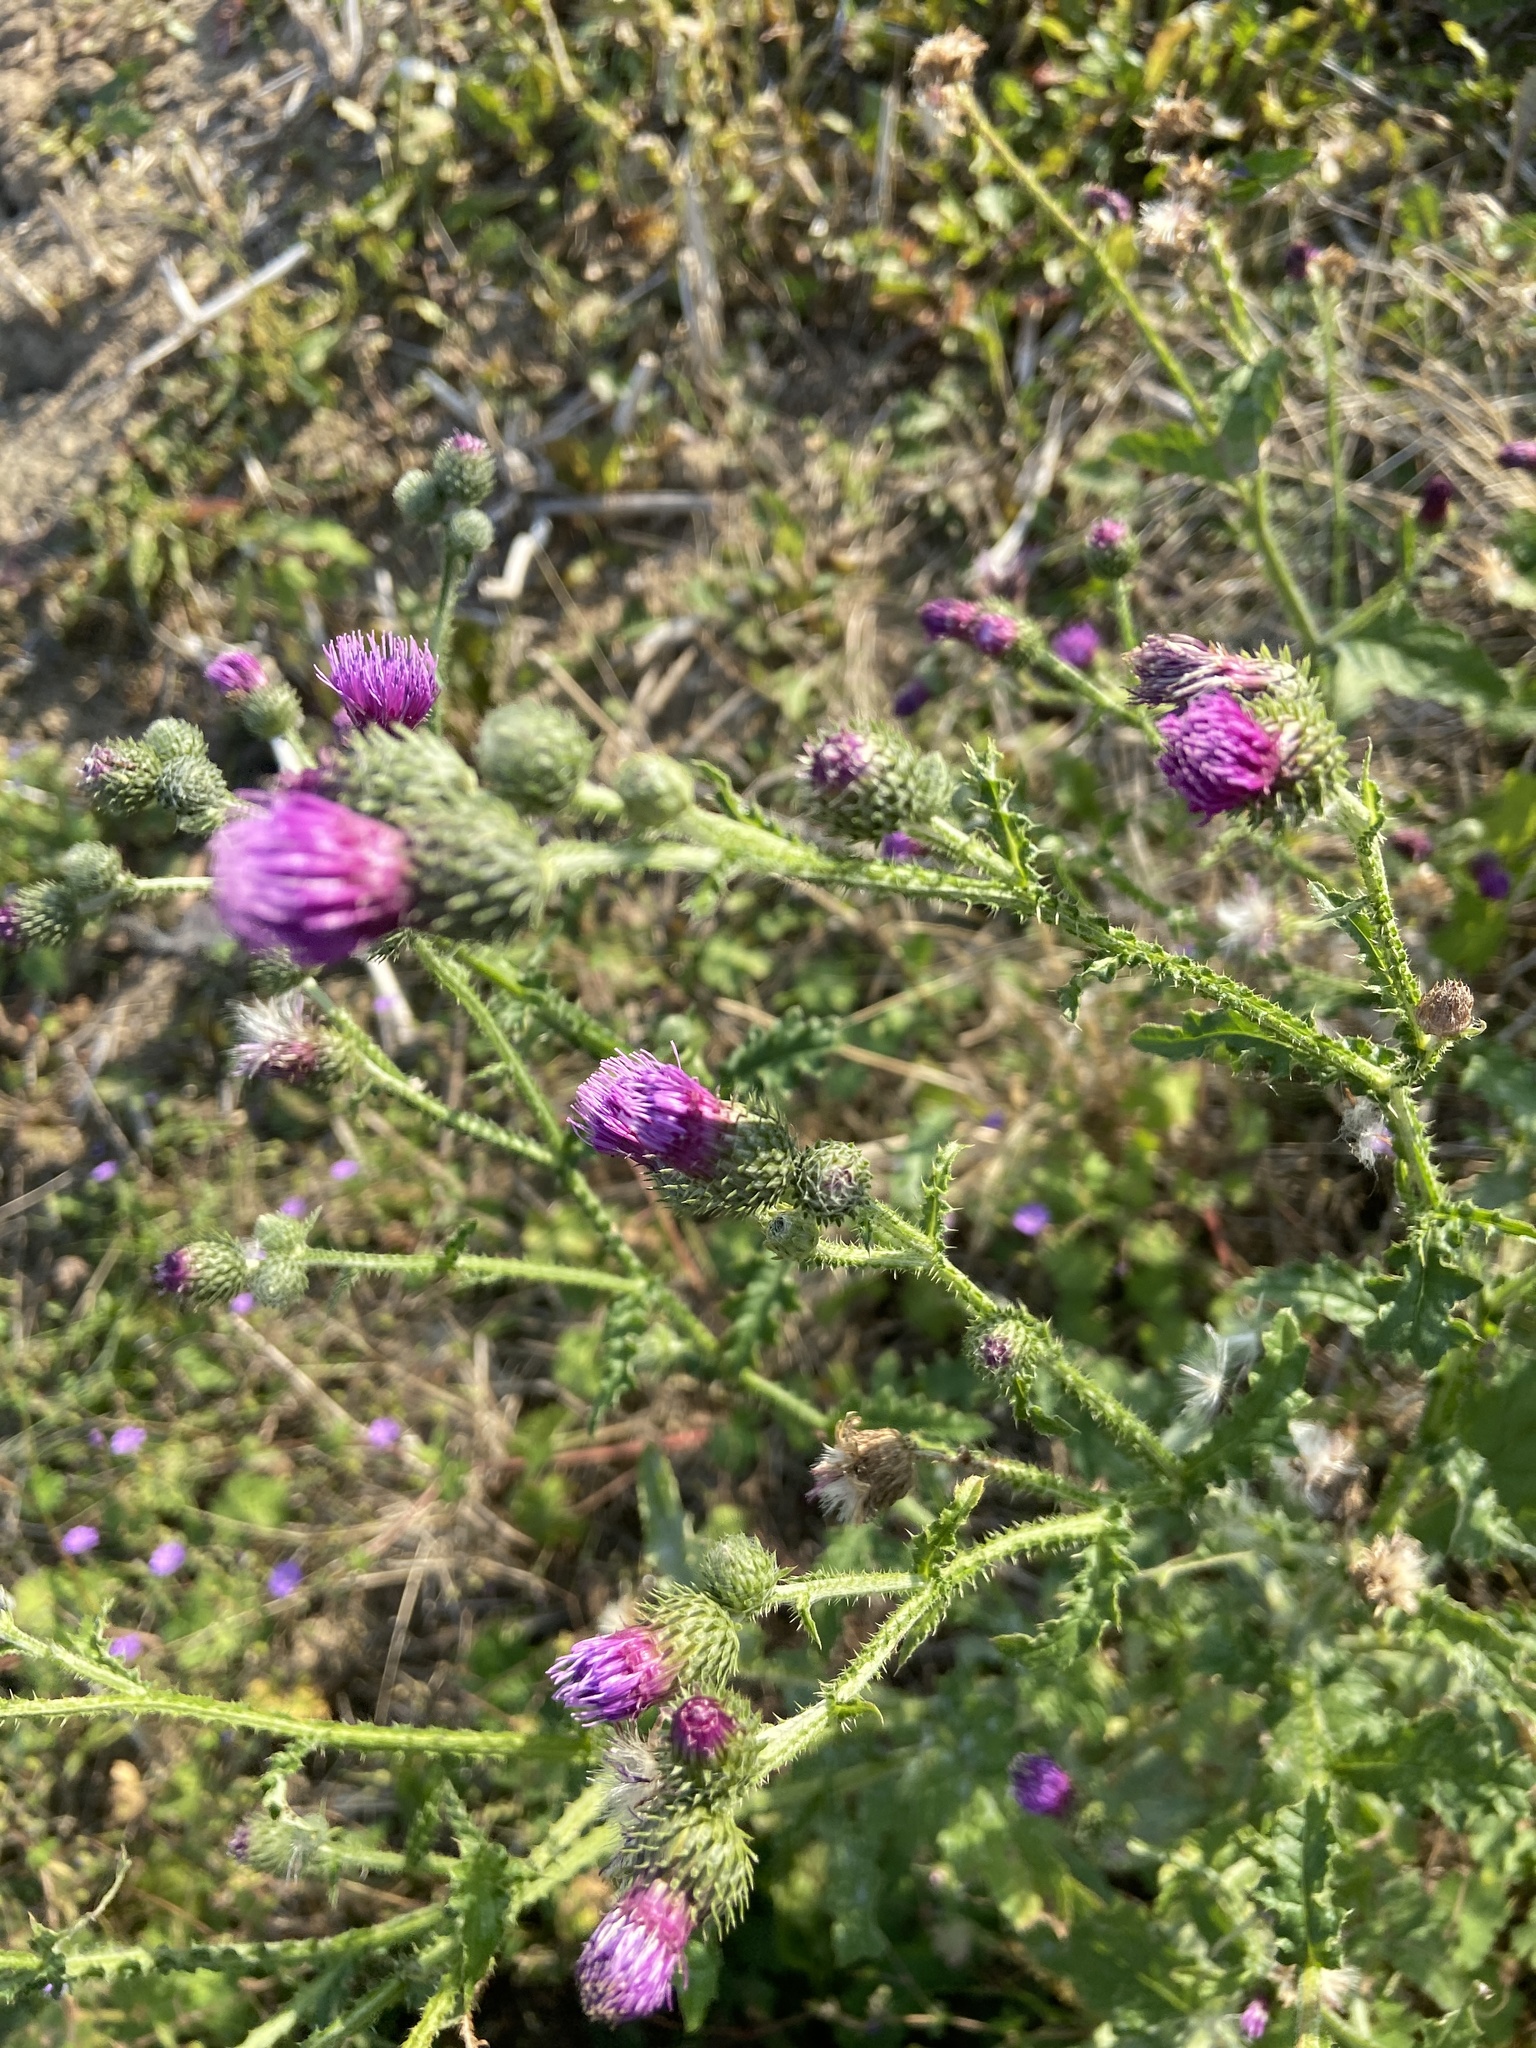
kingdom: Plantae
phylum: Tracheophyta
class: Magnoliopsida
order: Asterales
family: Asteraceae
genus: Carduus
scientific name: Carduus crispus
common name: Welted thistle
